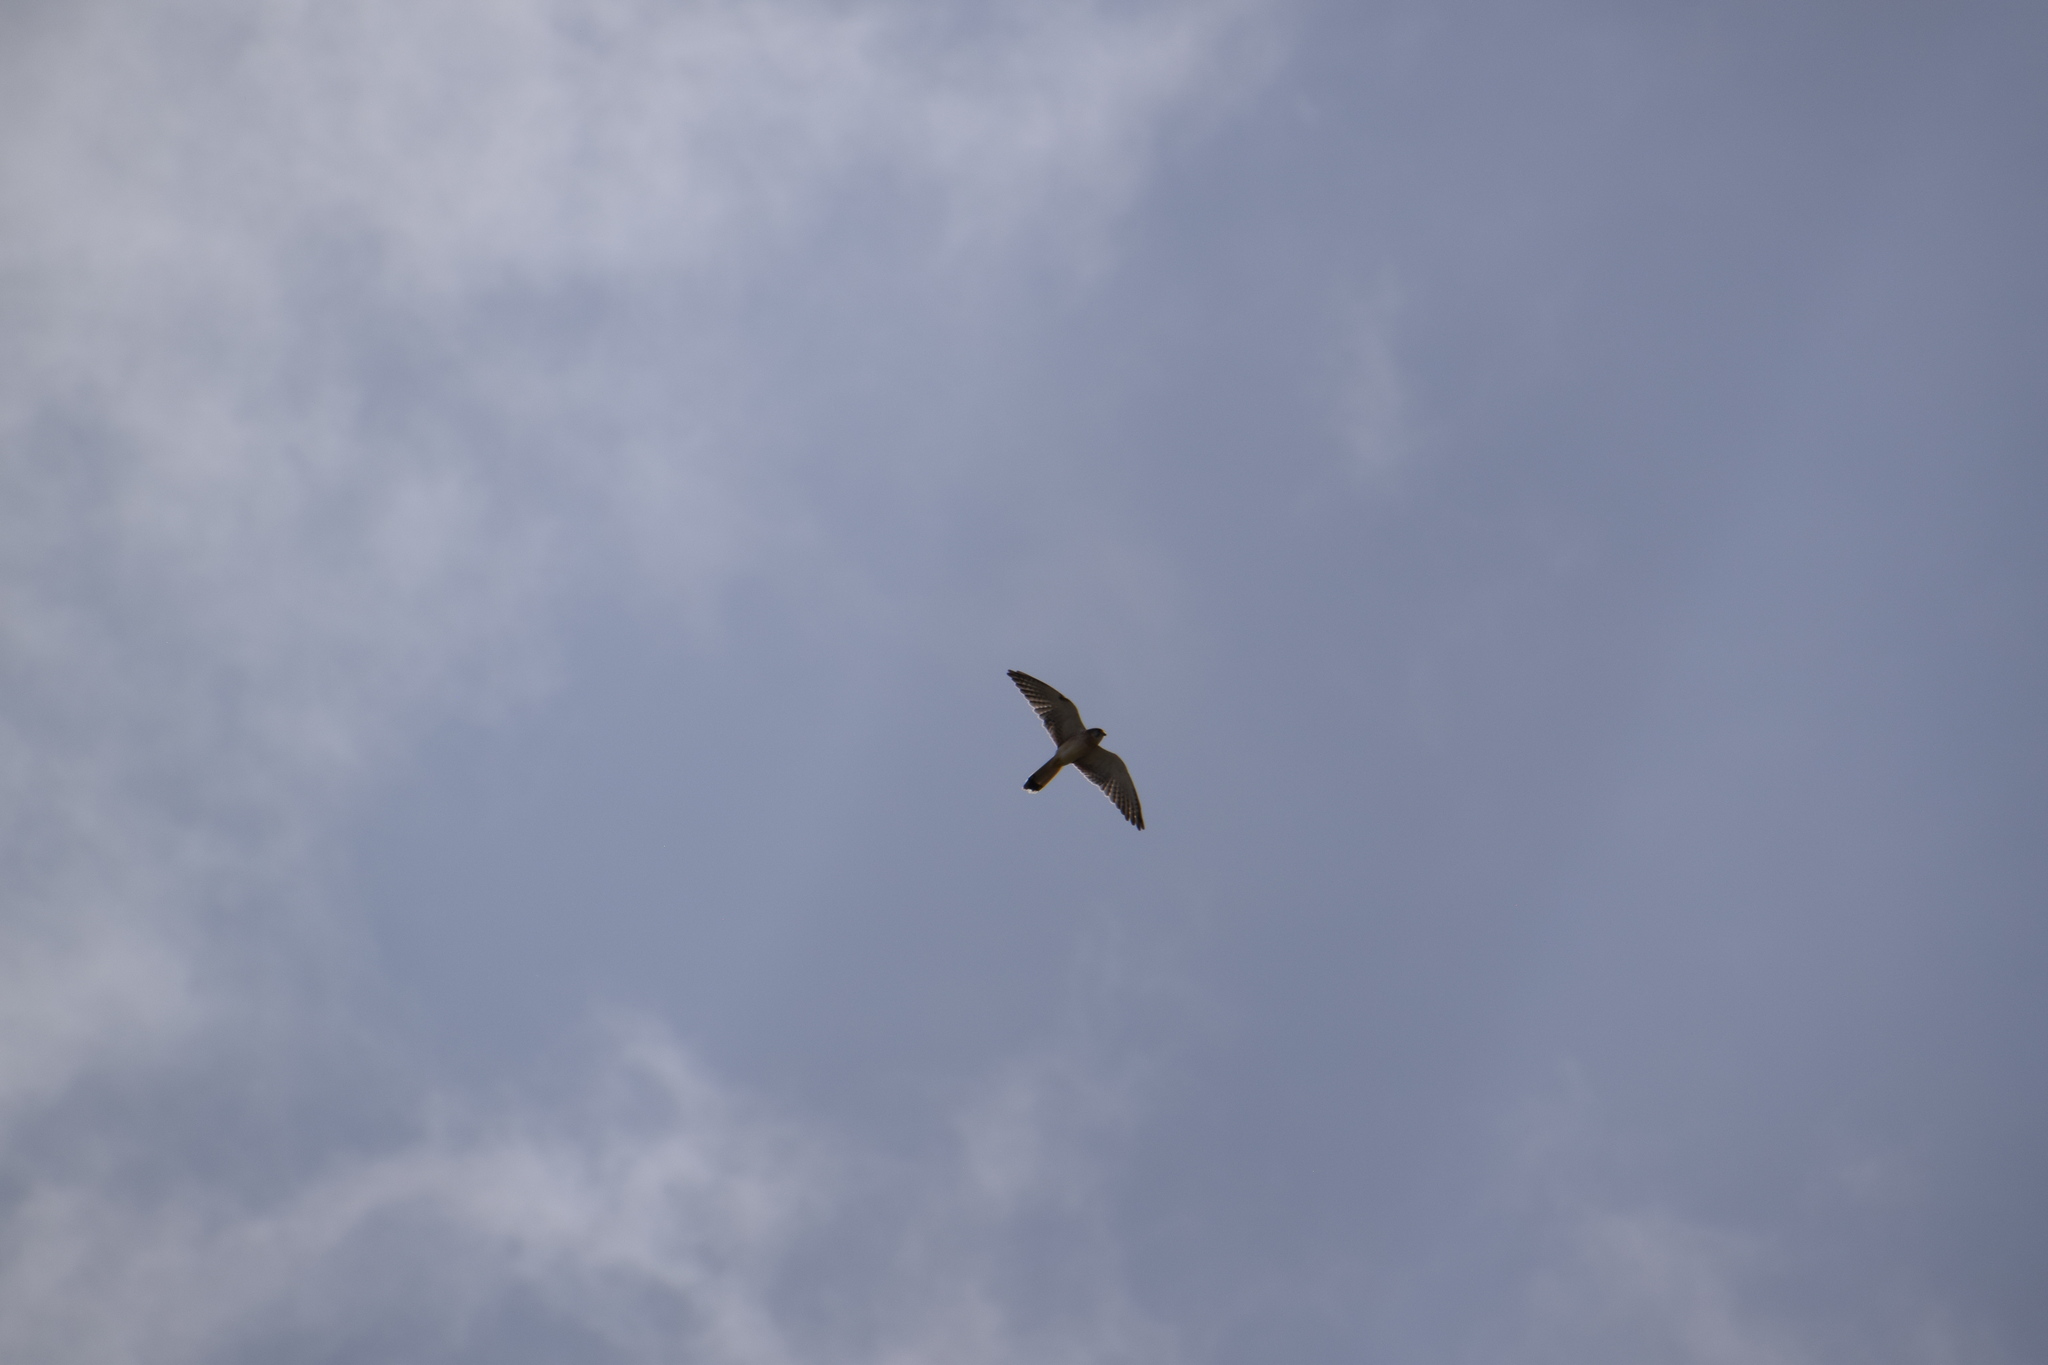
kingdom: Animalia
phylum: Chordata
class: Aves
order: Falconiformes
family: Falconidae
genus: Falco
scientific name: Falco cenchroides
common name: Nankeen kestrel
